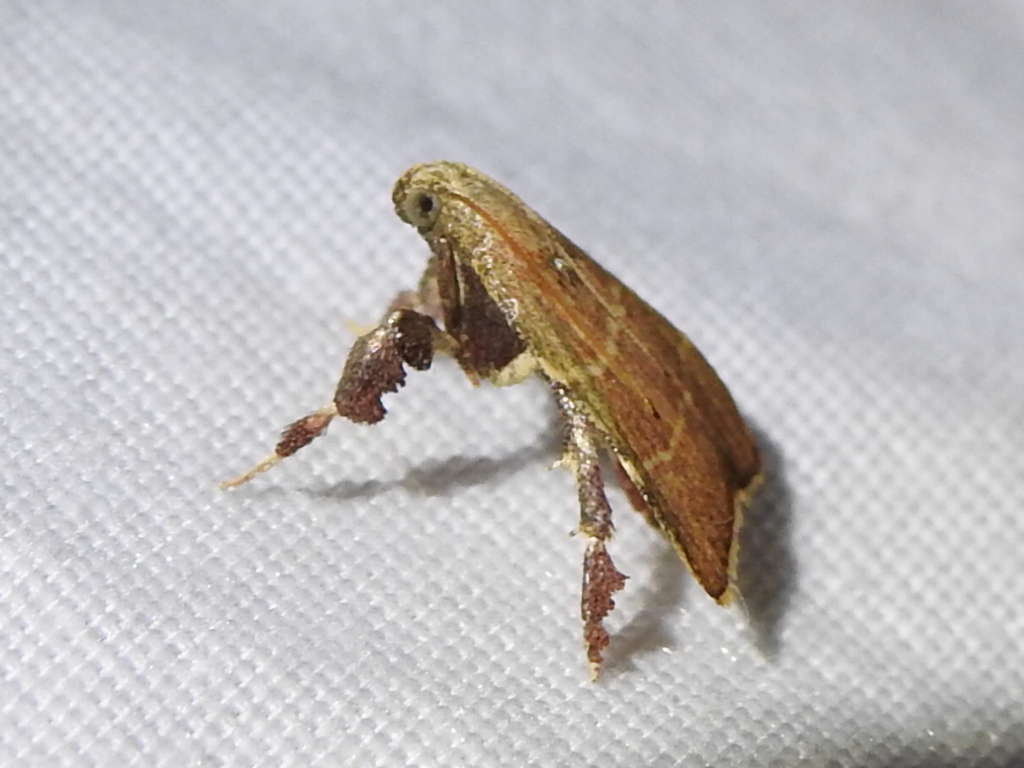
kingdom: Animalia
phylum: Arthropoda
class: Insecta
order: Lepidoptera
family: Pyralidae
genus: Parachma
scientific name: Parachma ochracealis
